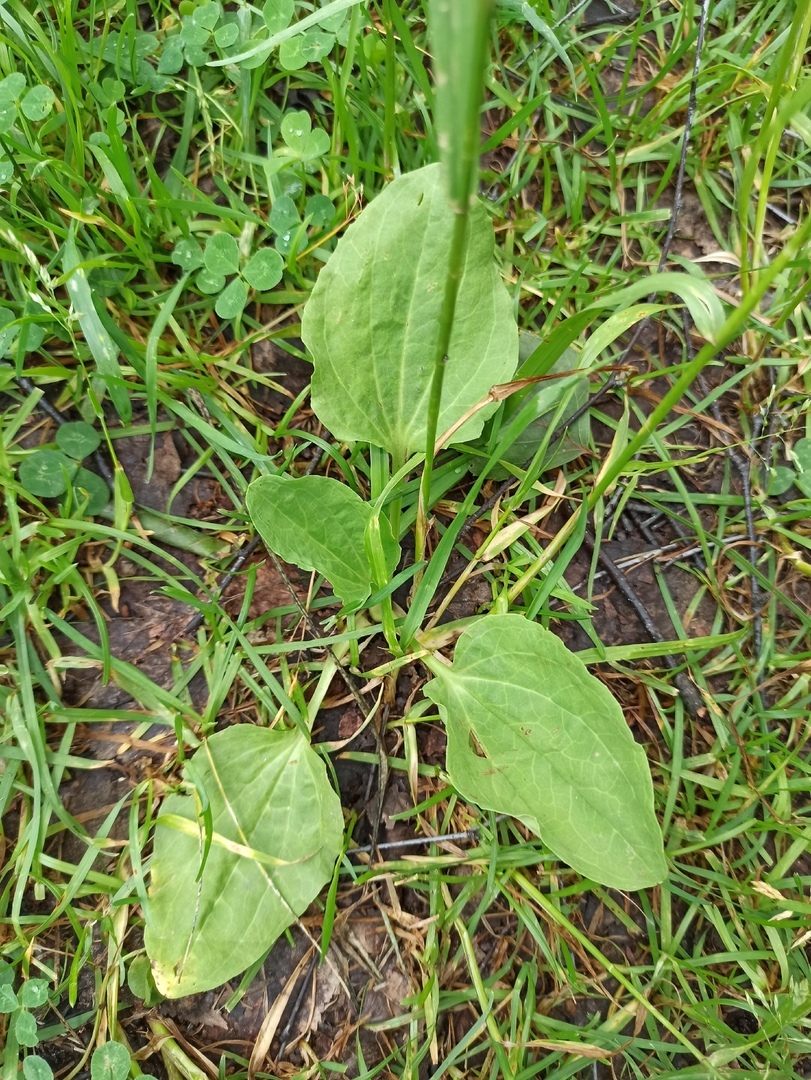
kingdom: Plantae
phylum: Tracheophyta
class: Magnoliopsida
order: Lamiales
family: Plantaginaceae
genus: Plantago
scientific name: Plantago major
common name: Common plantain
